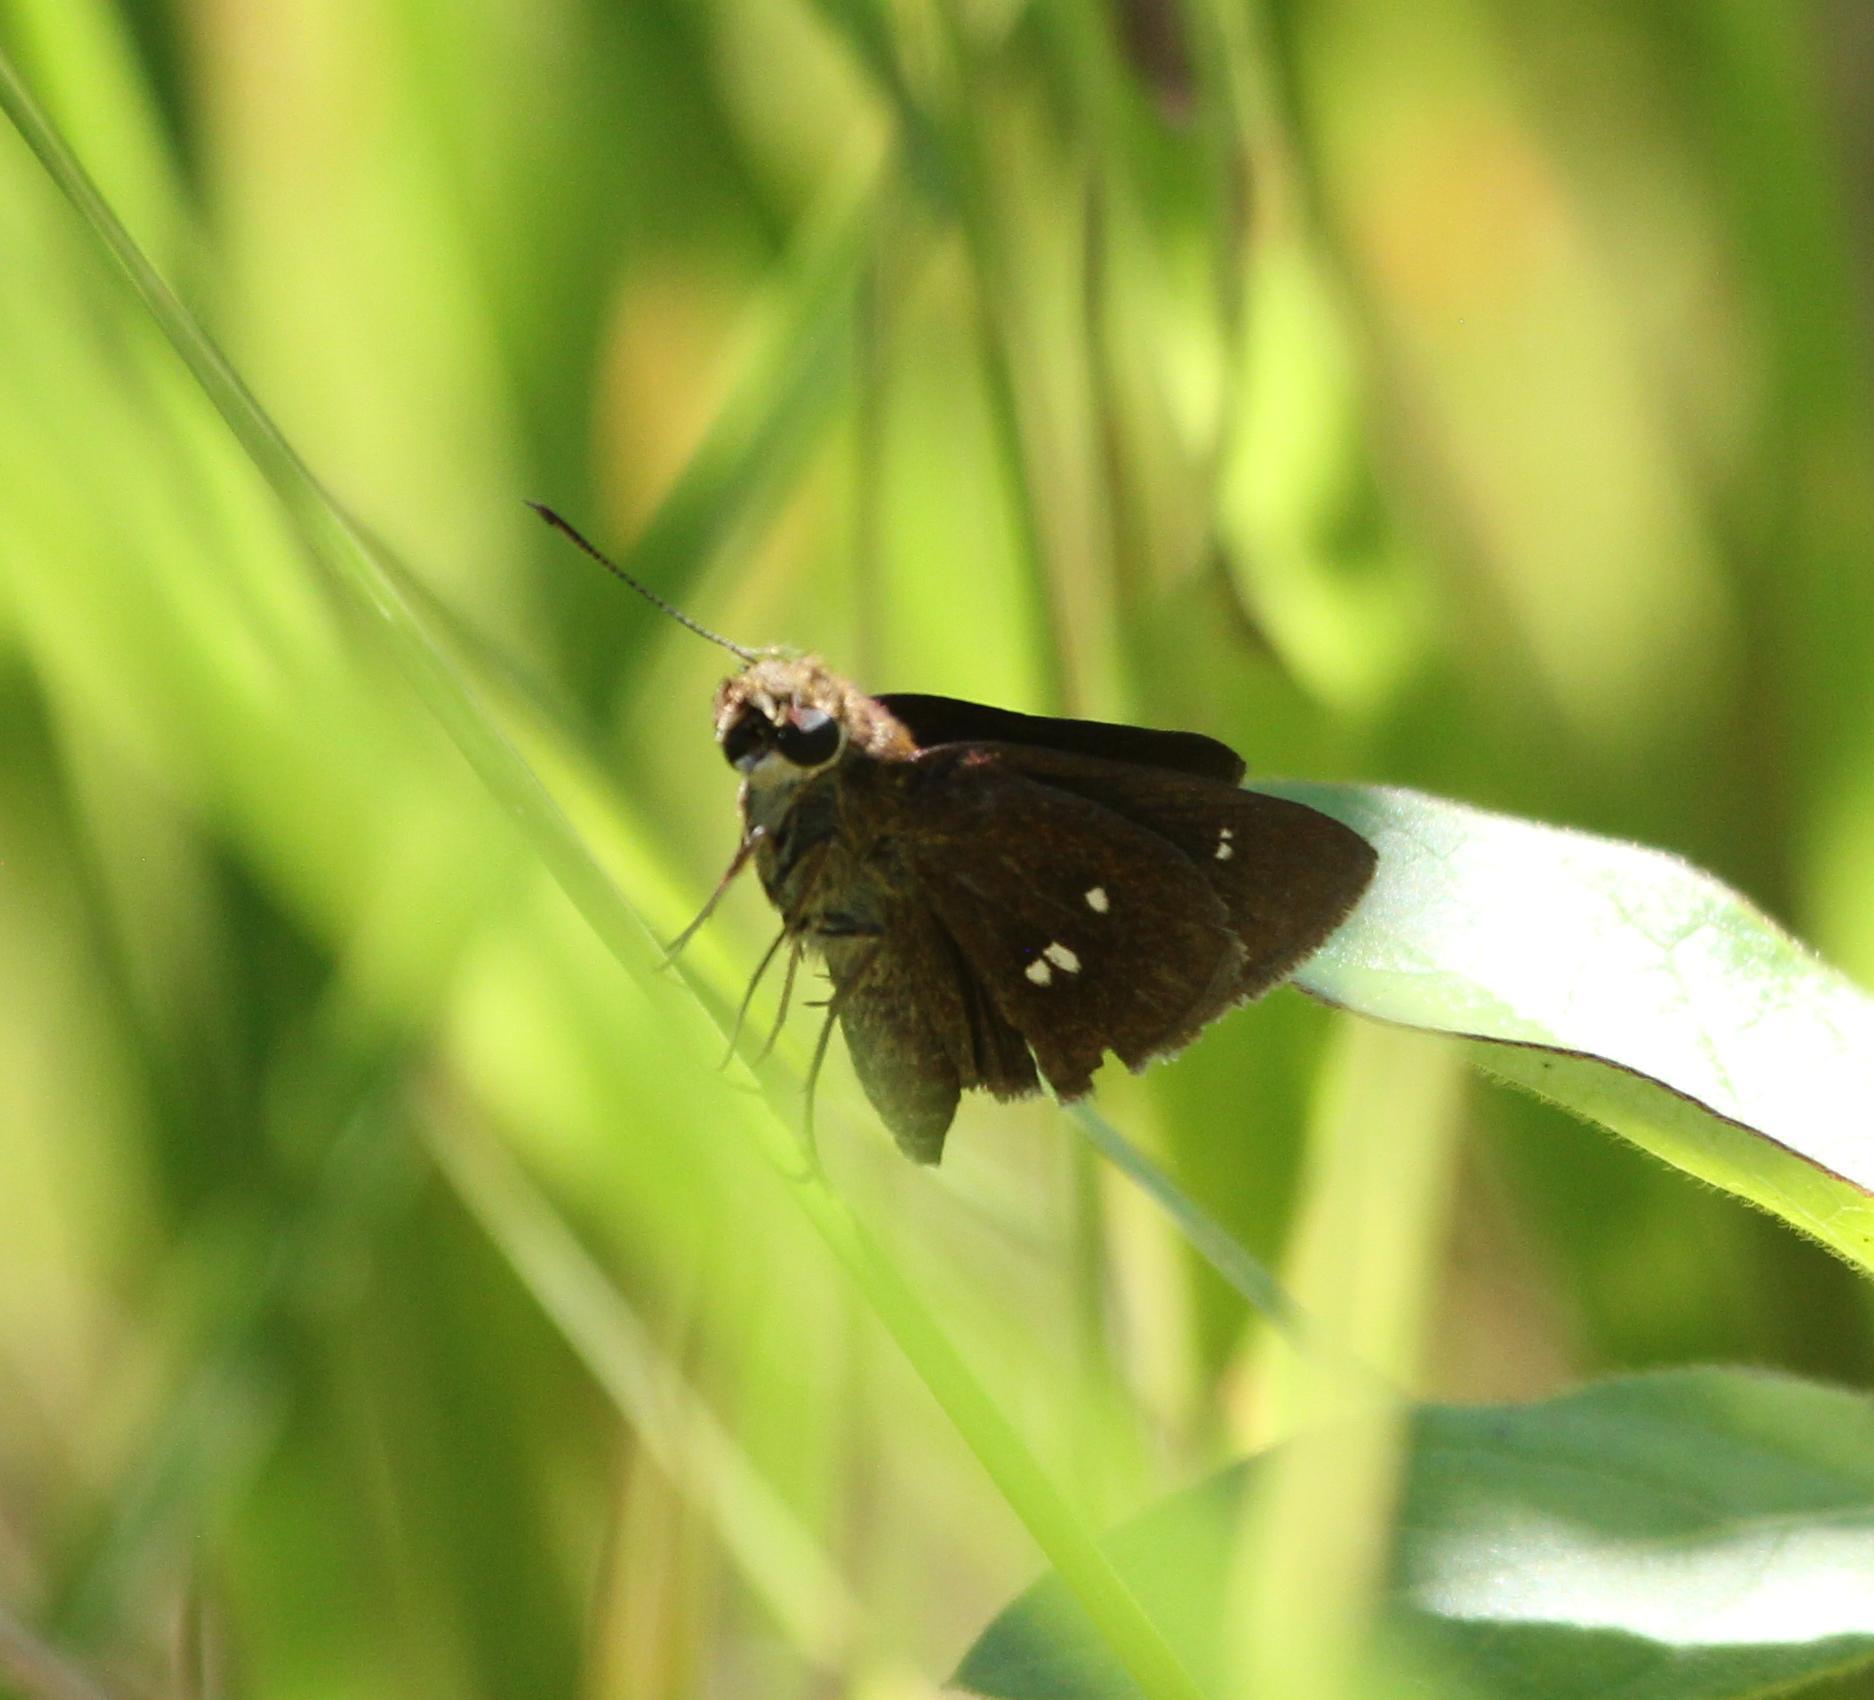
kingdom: Animalia
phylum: Arthropoda
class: Insecta
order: Lepidoptera
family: Hesperiidae
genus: Oligoria
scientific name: Oligoria maculata
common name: Twin-spot skipper
